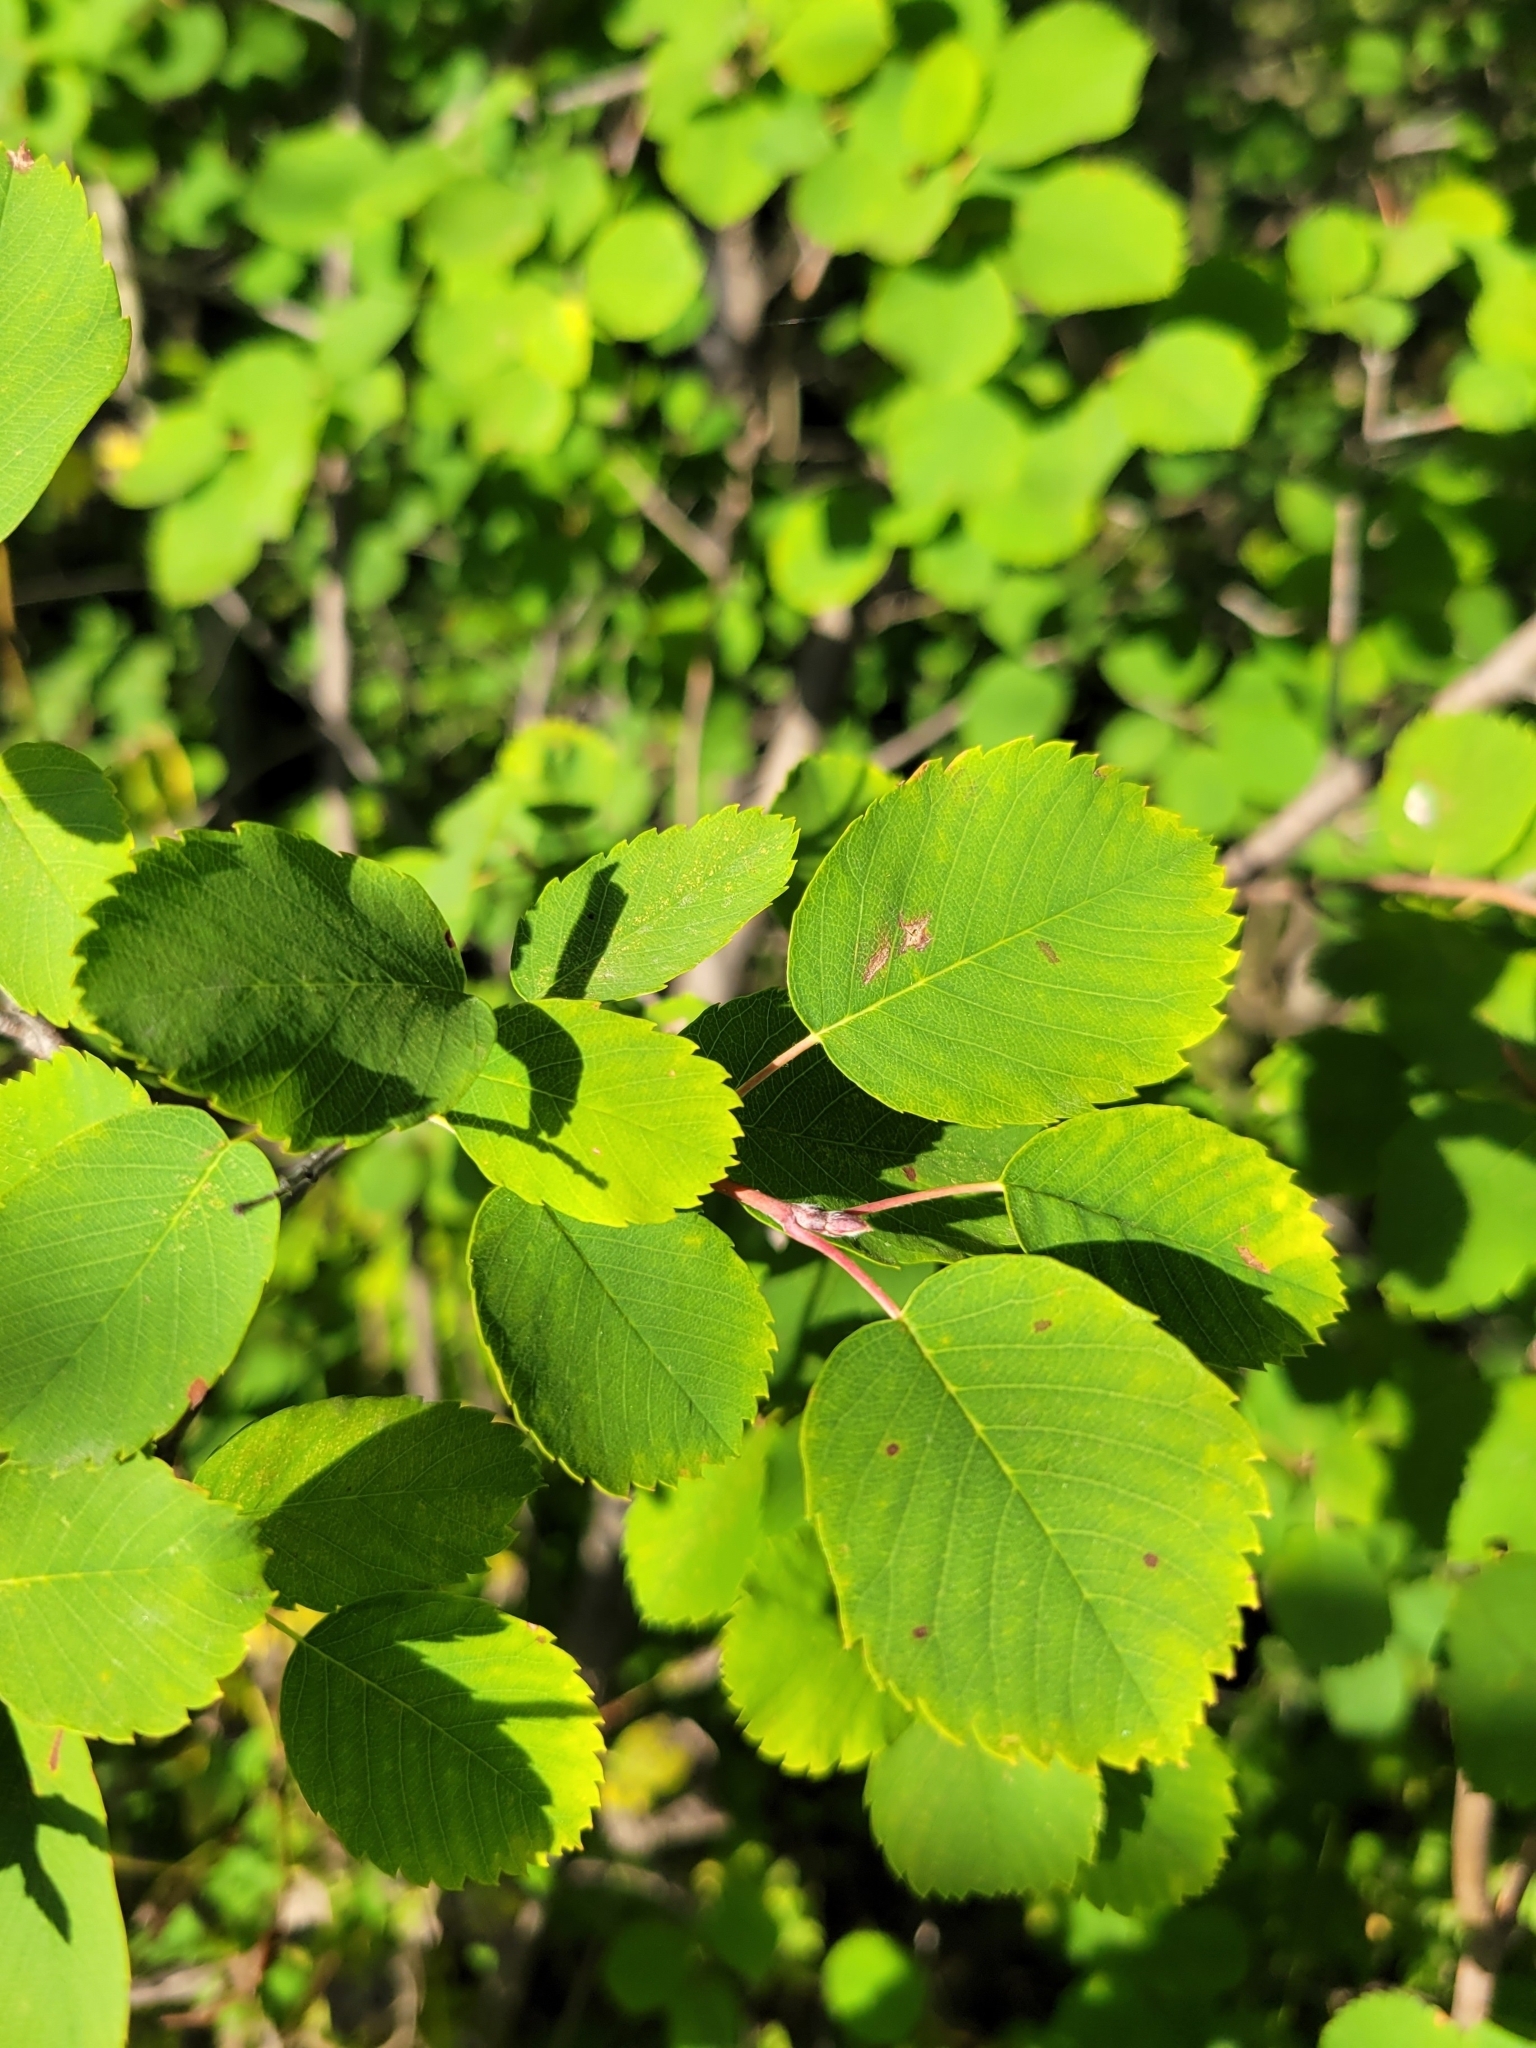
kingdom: Plantae
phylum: Tracheophyta
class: Magnoliopsida
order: Rosales
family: Rosaceae
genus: Amelanchier
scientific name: Amelanchier alnifolia
